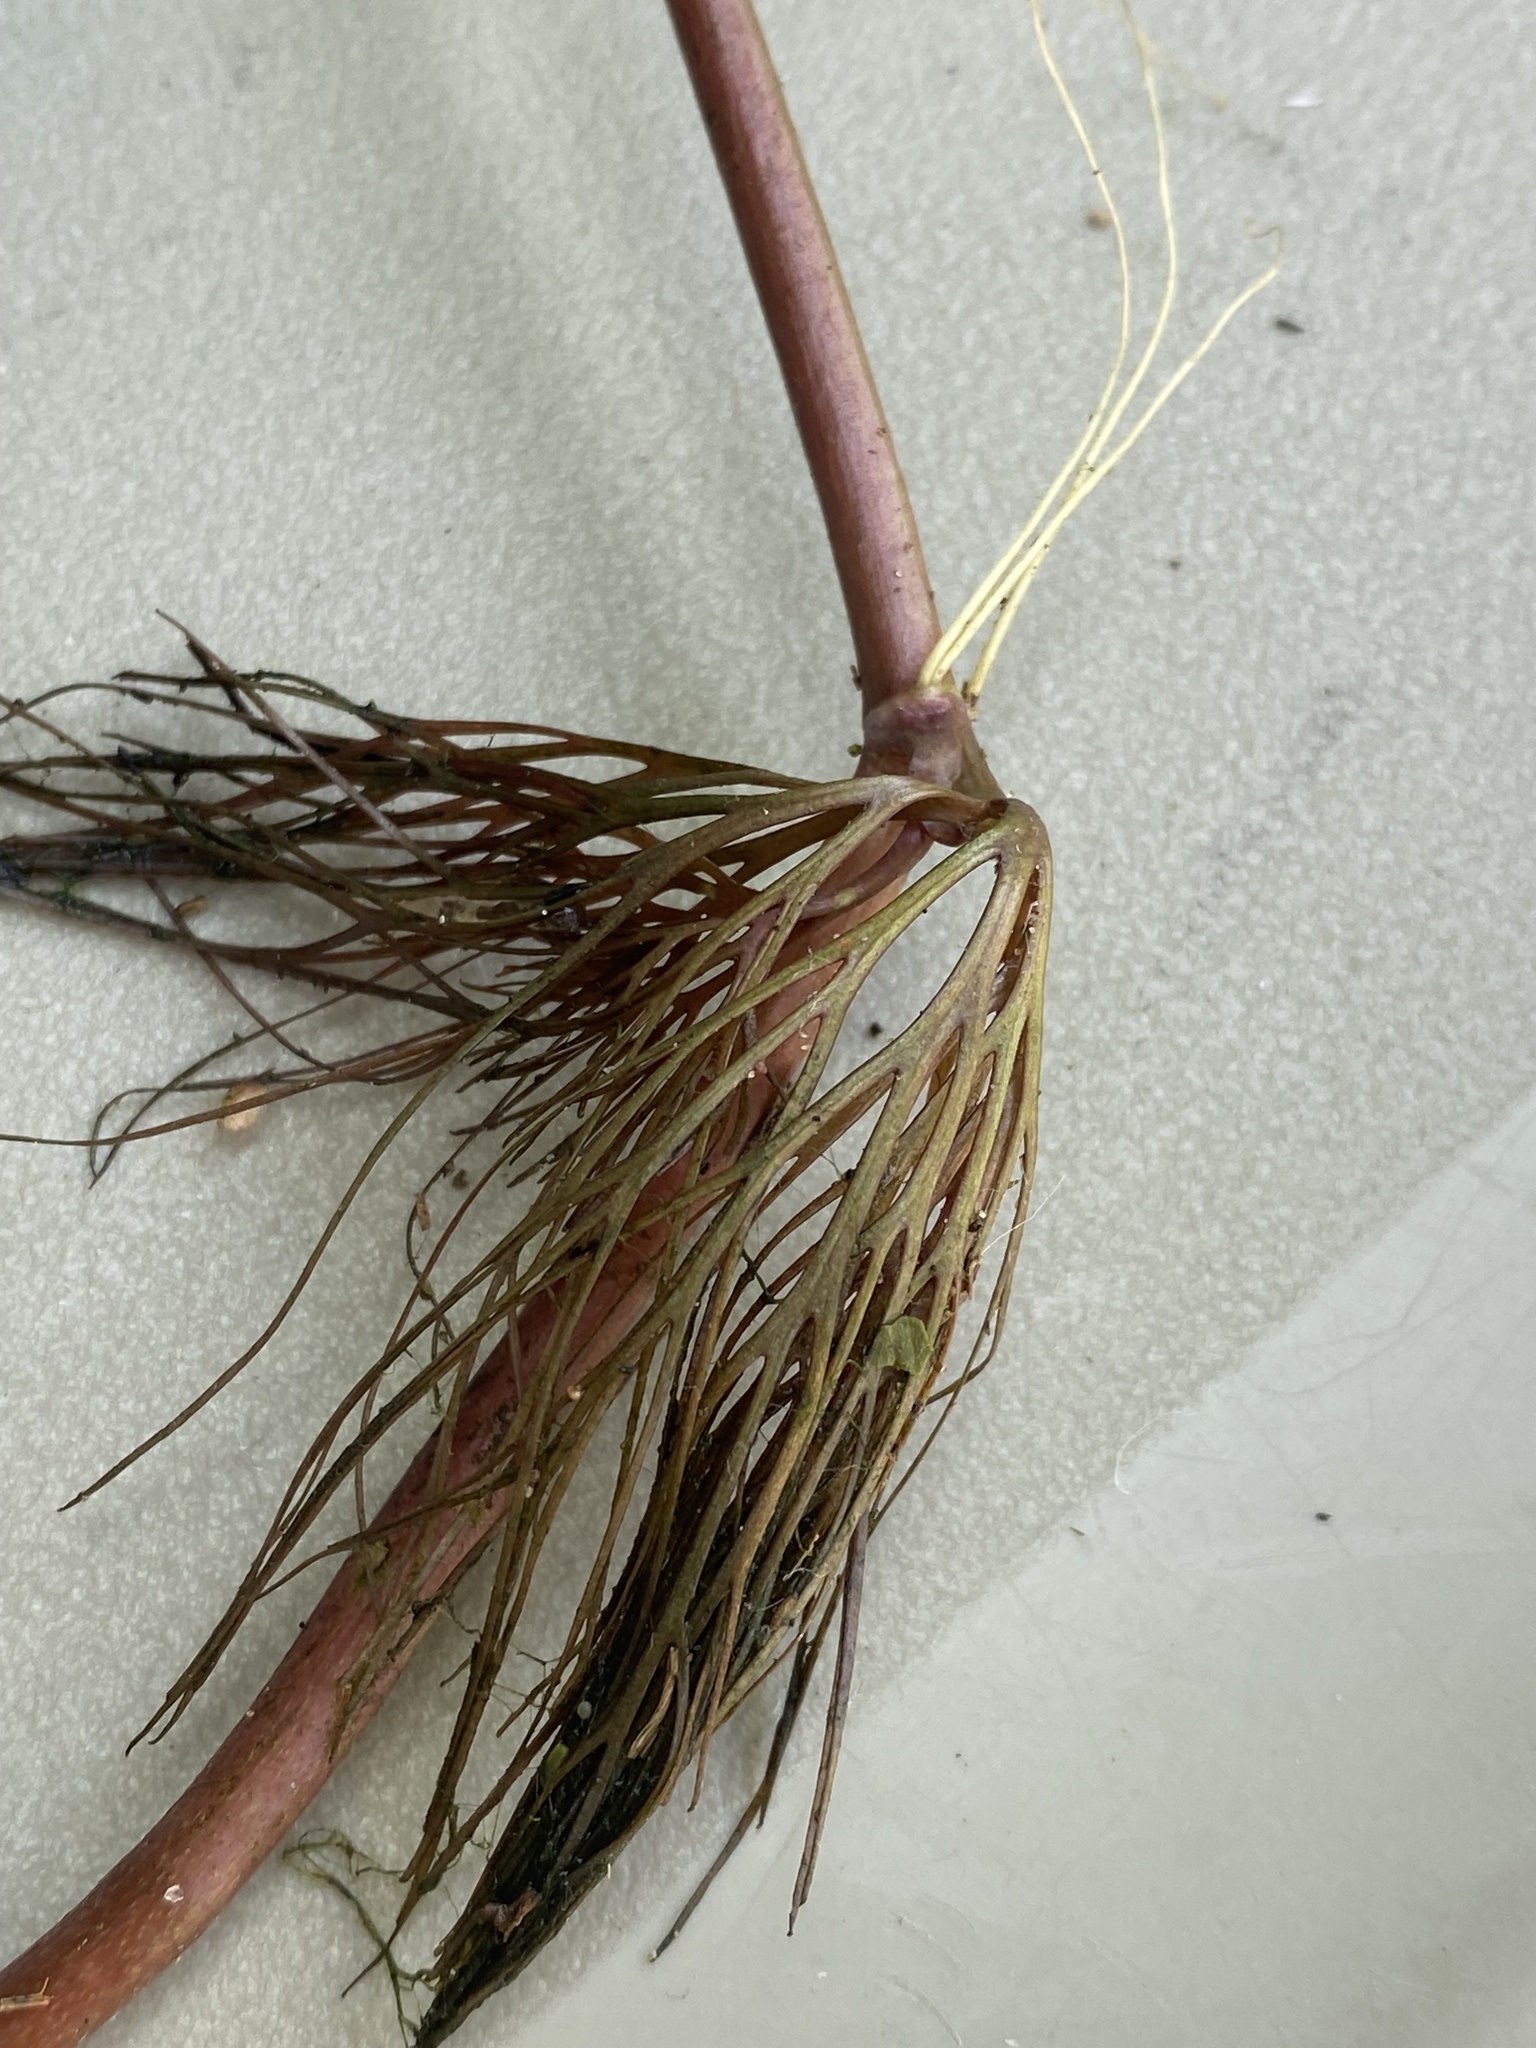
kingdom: Plantae
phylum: Tracheophyta
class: Magnoliopsida
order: Ranunculales
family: Ranunculaceae
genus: Ranunculus
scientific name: Ranunculus flabellaris
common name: Yellow water-crowfoot
